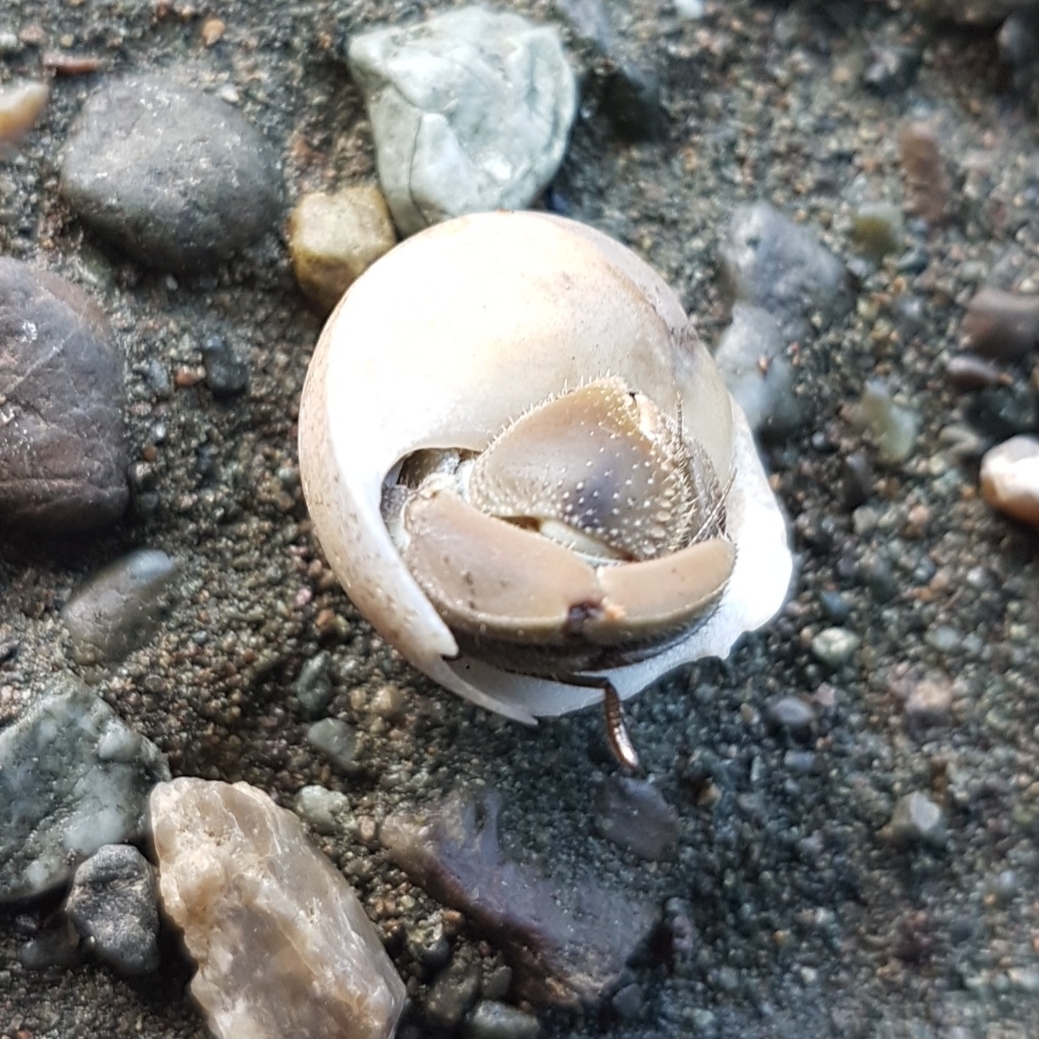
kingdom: Animalia
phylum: Arthropoda
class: Malacostraca
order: Decapoda
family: Coenobitidae
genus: Coenobita
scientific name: Coenobita compressus
